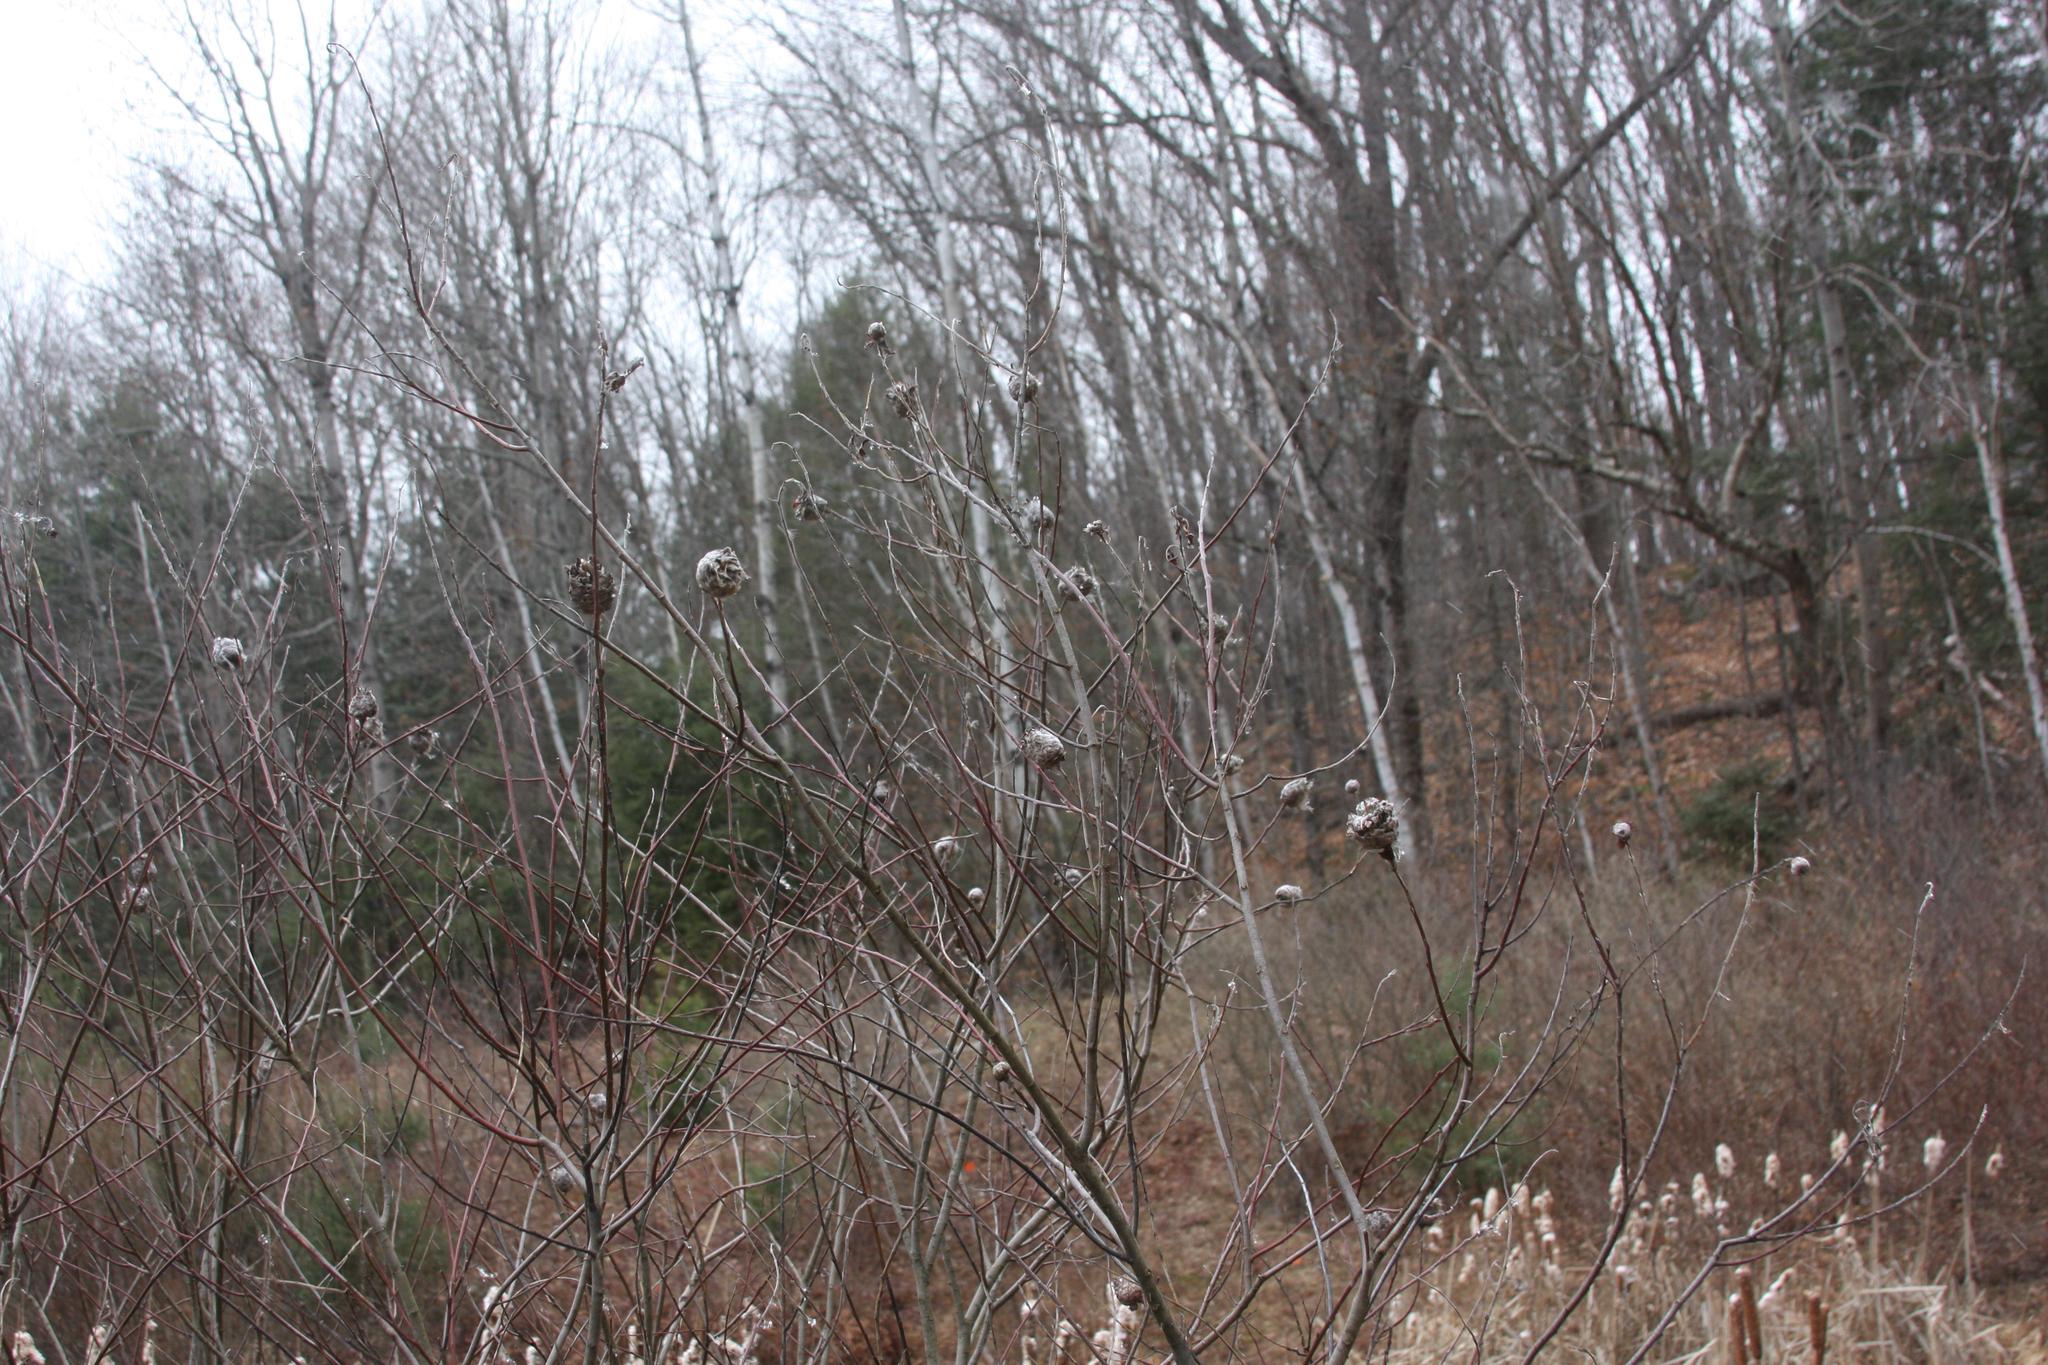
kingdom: Animalia
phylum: Arthropoda
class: Insecta
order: Diptera
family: Cecidomyiidae
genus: Rabdophaga
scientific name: Rabdophaga strobiloides
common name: Willow pinecone gall midge
